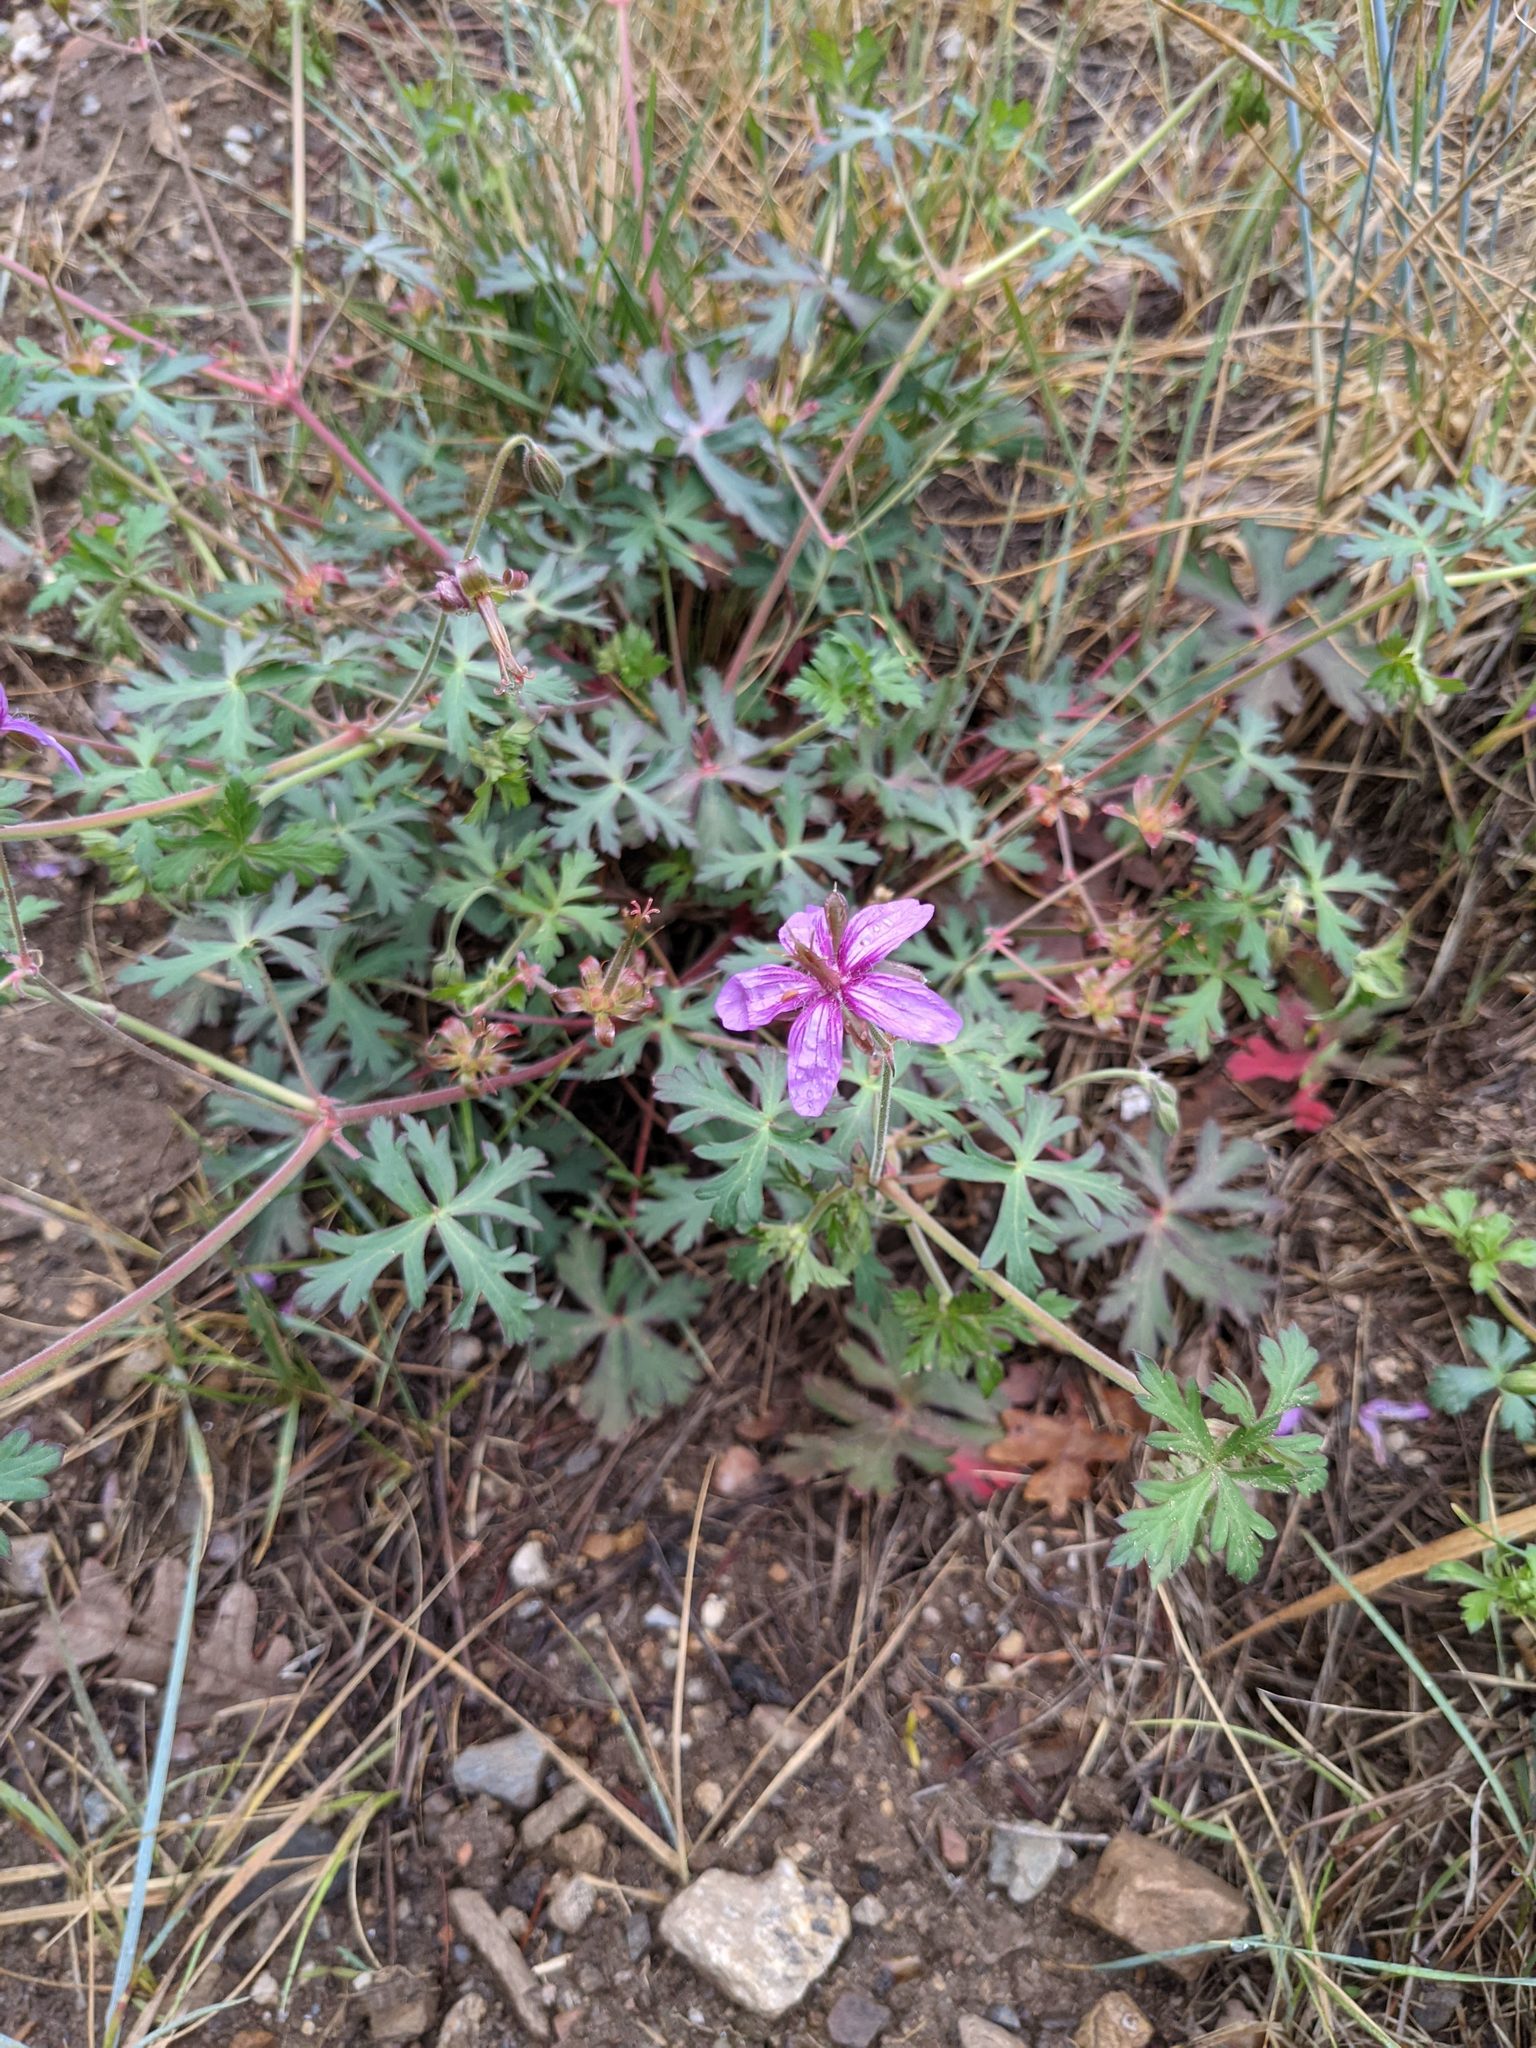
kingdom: Plantae
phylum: Tracheophyta
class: Magnoliopsida
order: Geraniales
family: Geraniaceae
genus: Geranium
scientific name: Geranium caespitosum
